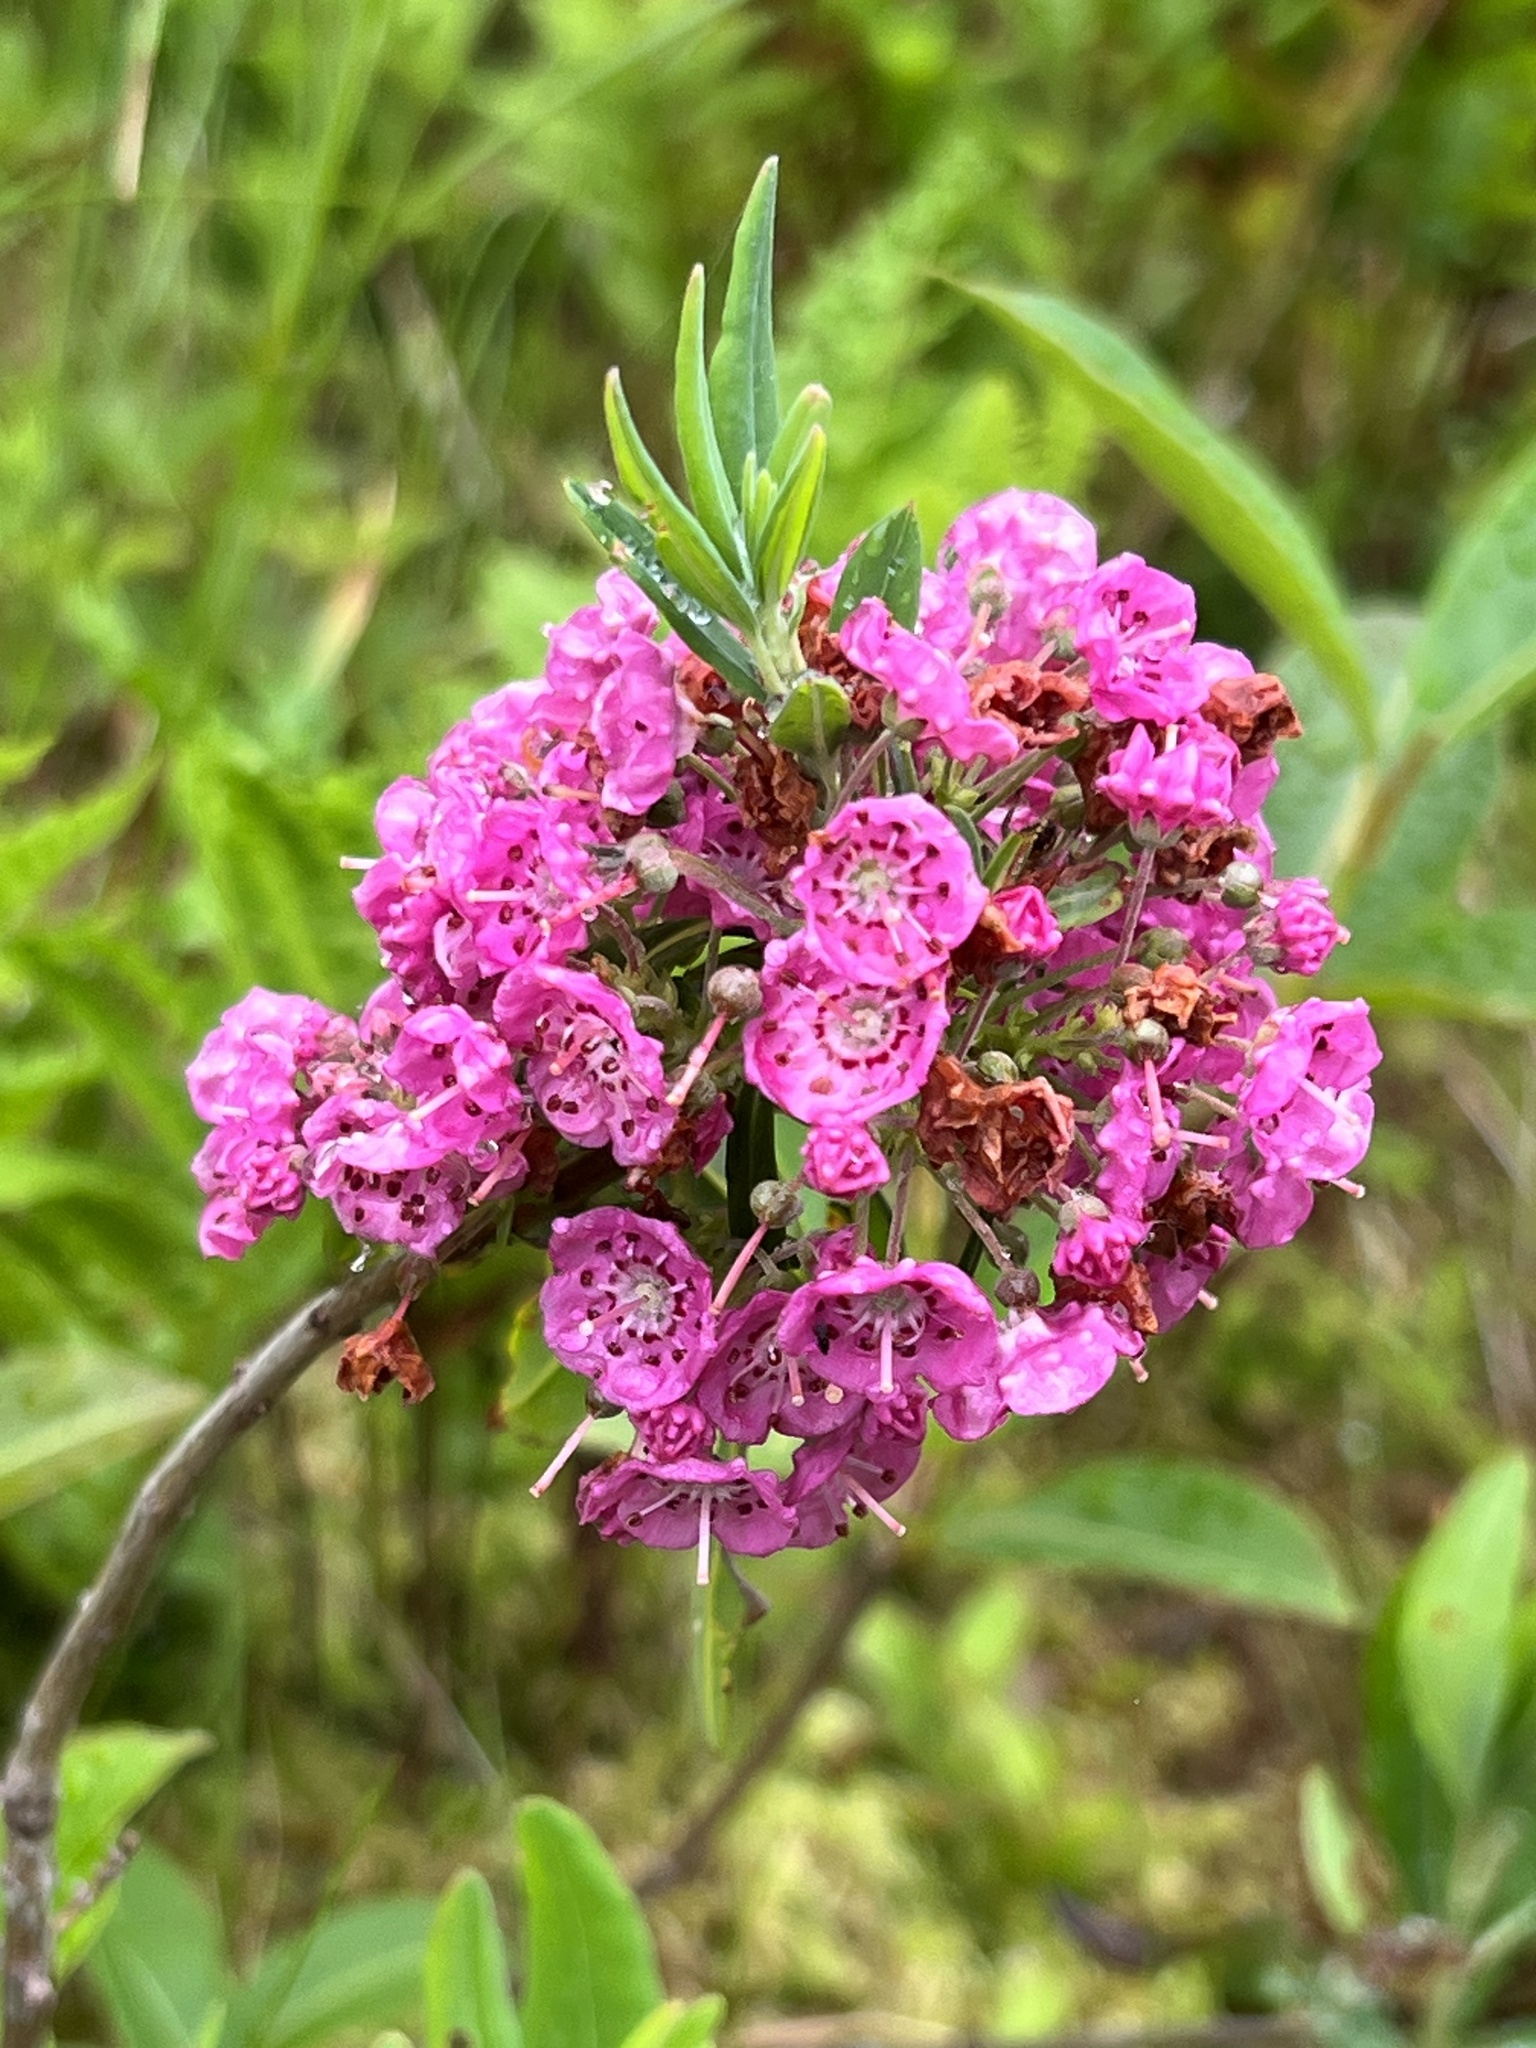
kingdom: Plantae
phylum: Tracheophyta
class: Magnoliopsida
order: Ericales
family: Ericaceae
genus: Kalmia
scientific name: Kalmia angustifolia
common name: Sheep-laurel
